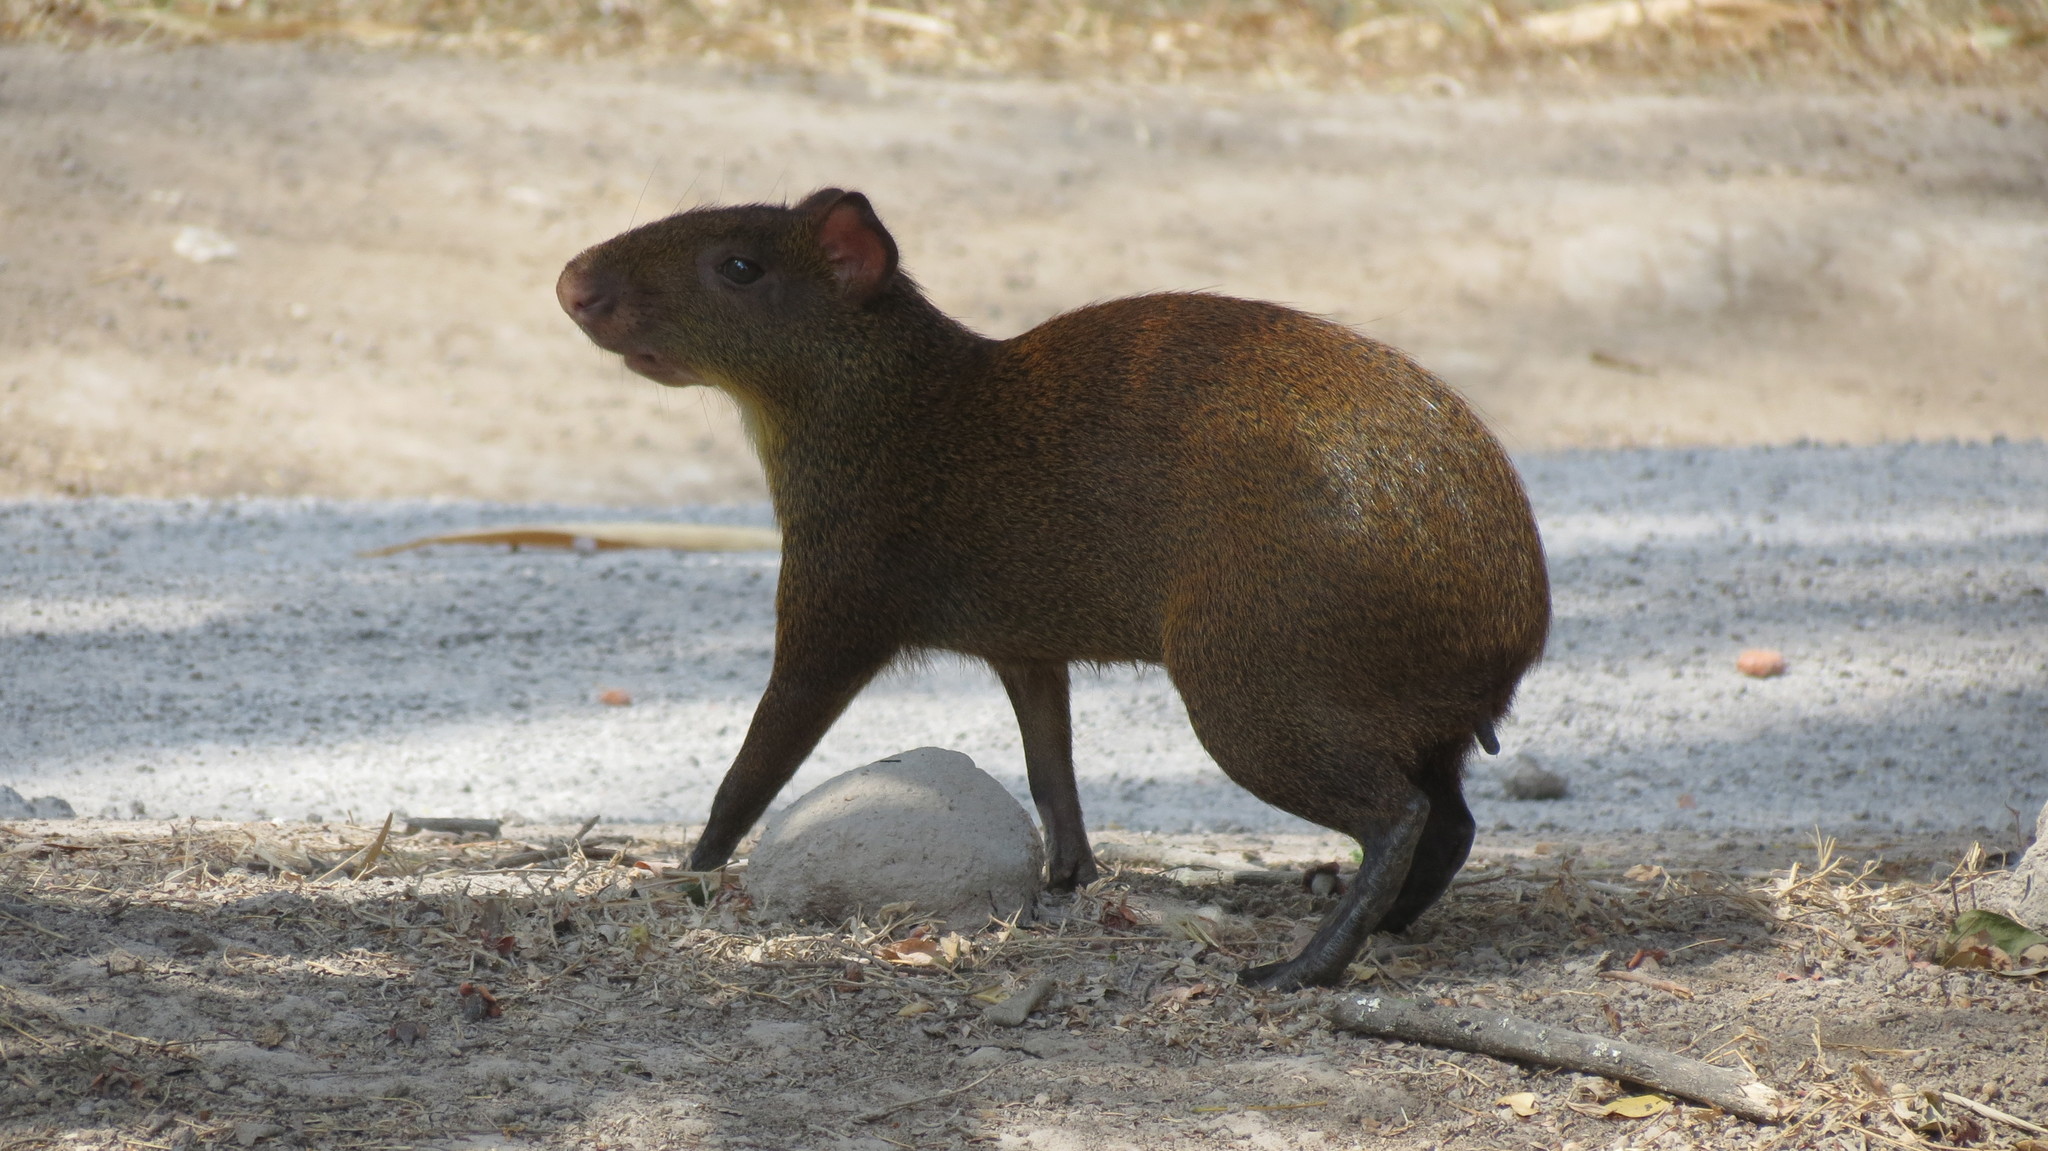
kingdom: Animalia
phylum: Chordata
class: Mammalia
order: Rodentia
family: Dasyproctidae
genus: Dasyprocta
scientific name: Dasyprocta punctata
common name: Central american agouti
